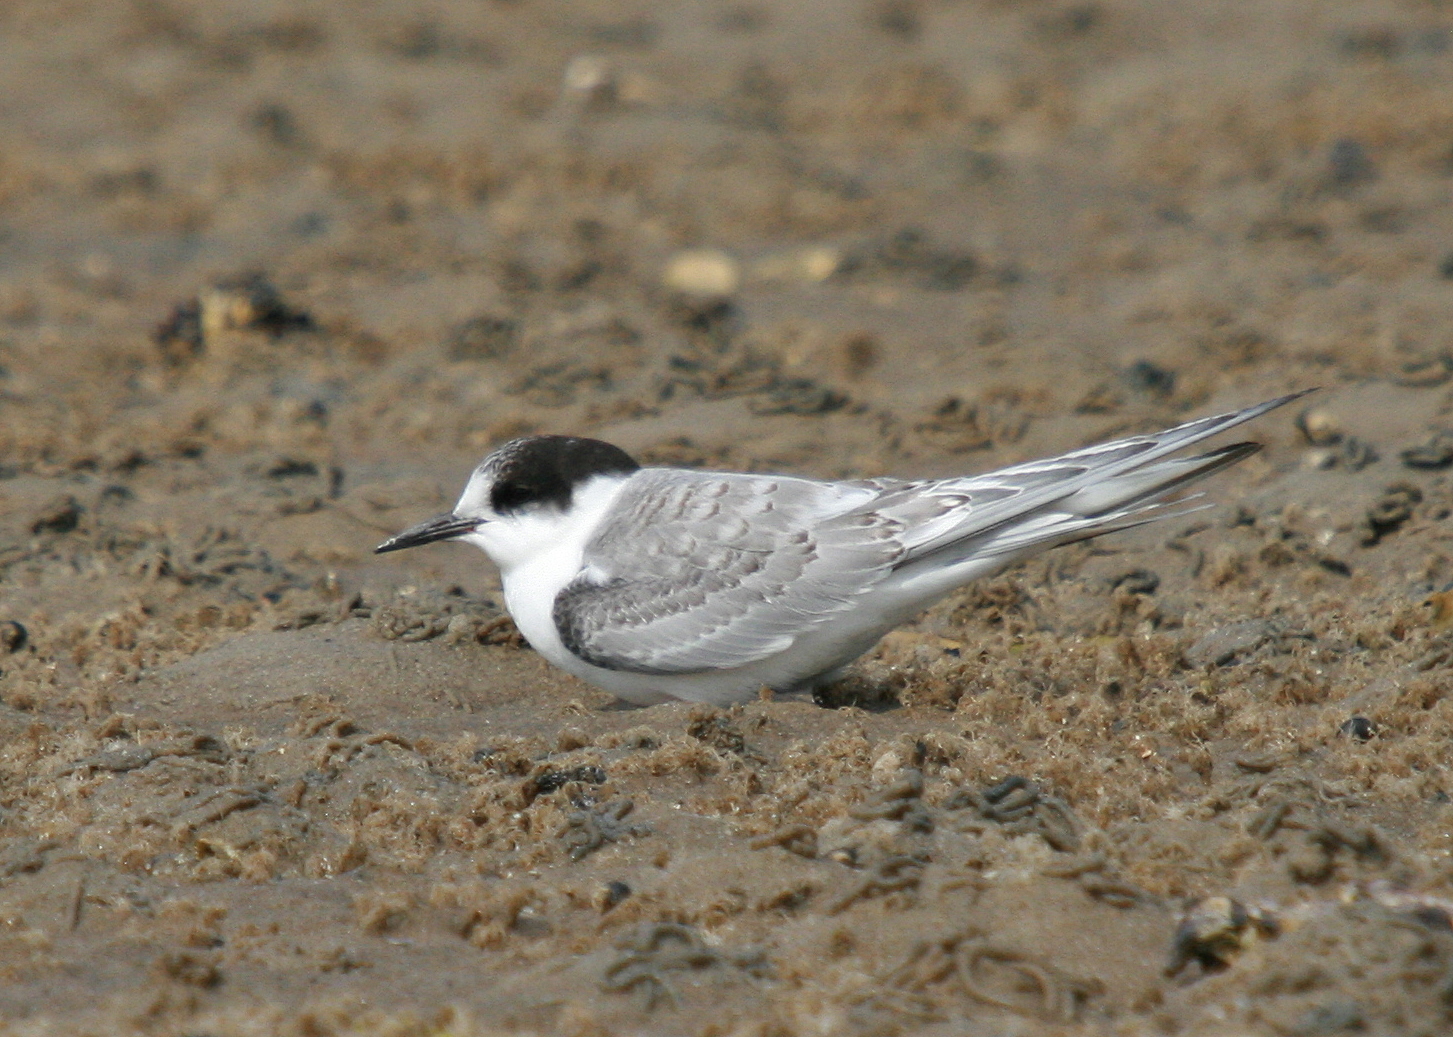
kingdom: Animalia
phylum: Chordata
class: Aves
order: Charadriiformes
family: Laridae
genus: Sterna
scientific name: Sterna paradisaea
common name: Arctic tern
